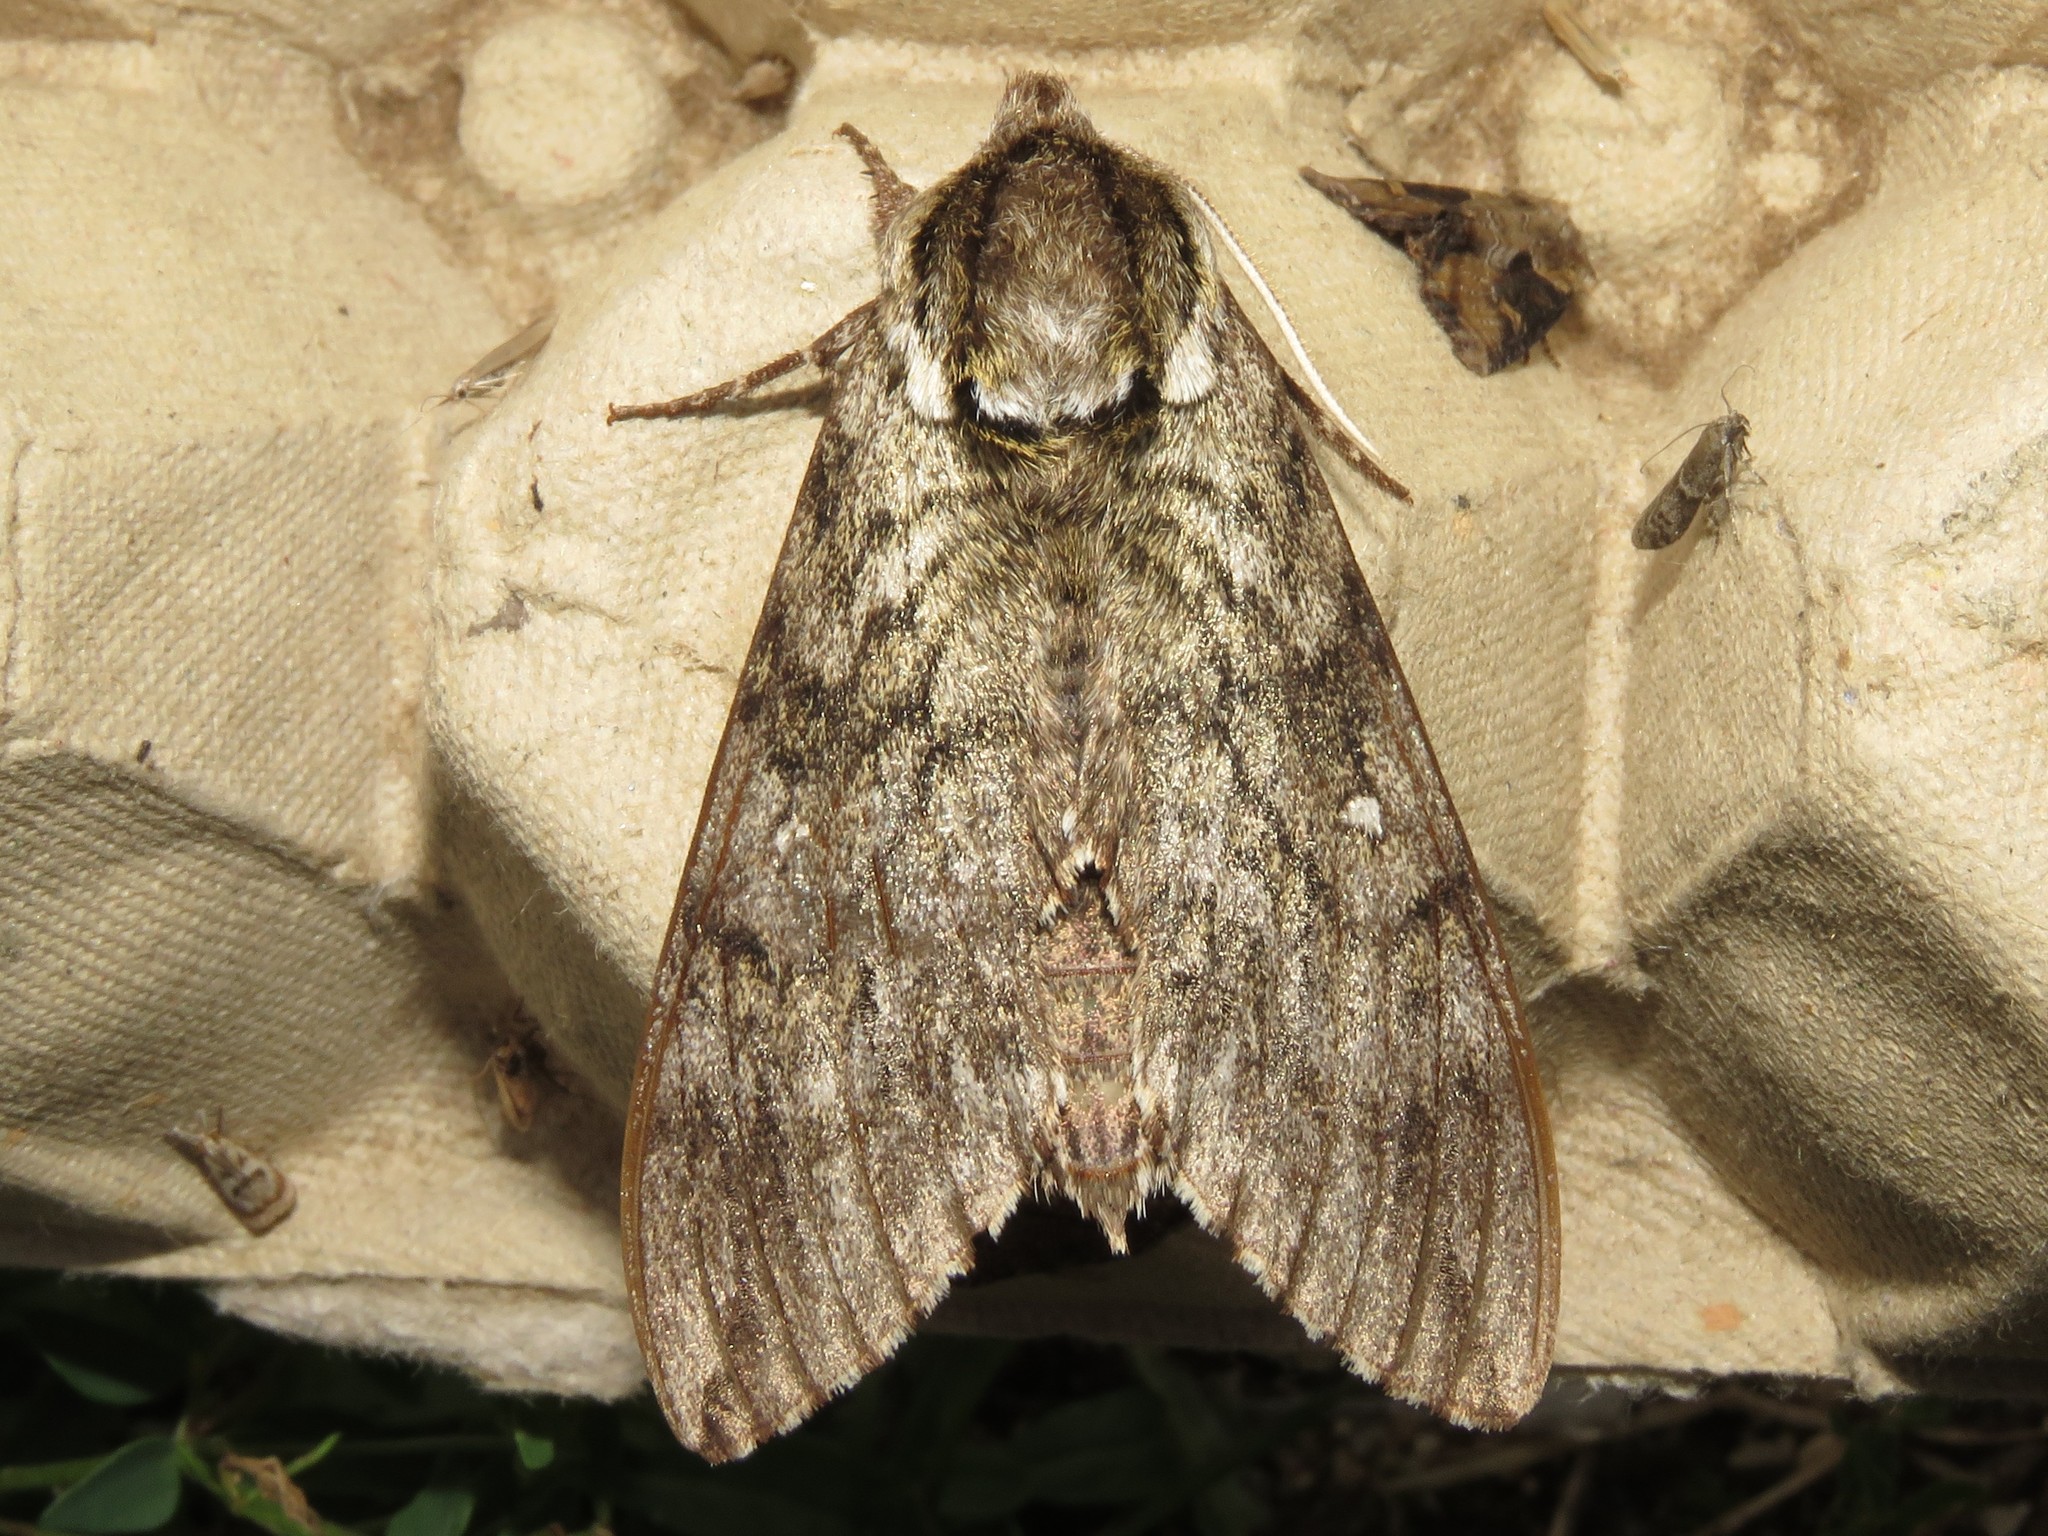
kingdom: Animalia
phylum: Arthropoda
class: Insecta
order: Lepidoptera
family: Sphingidae
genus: Ceratomia
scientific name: Ceratomia undulosa
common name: Waved sphinx
